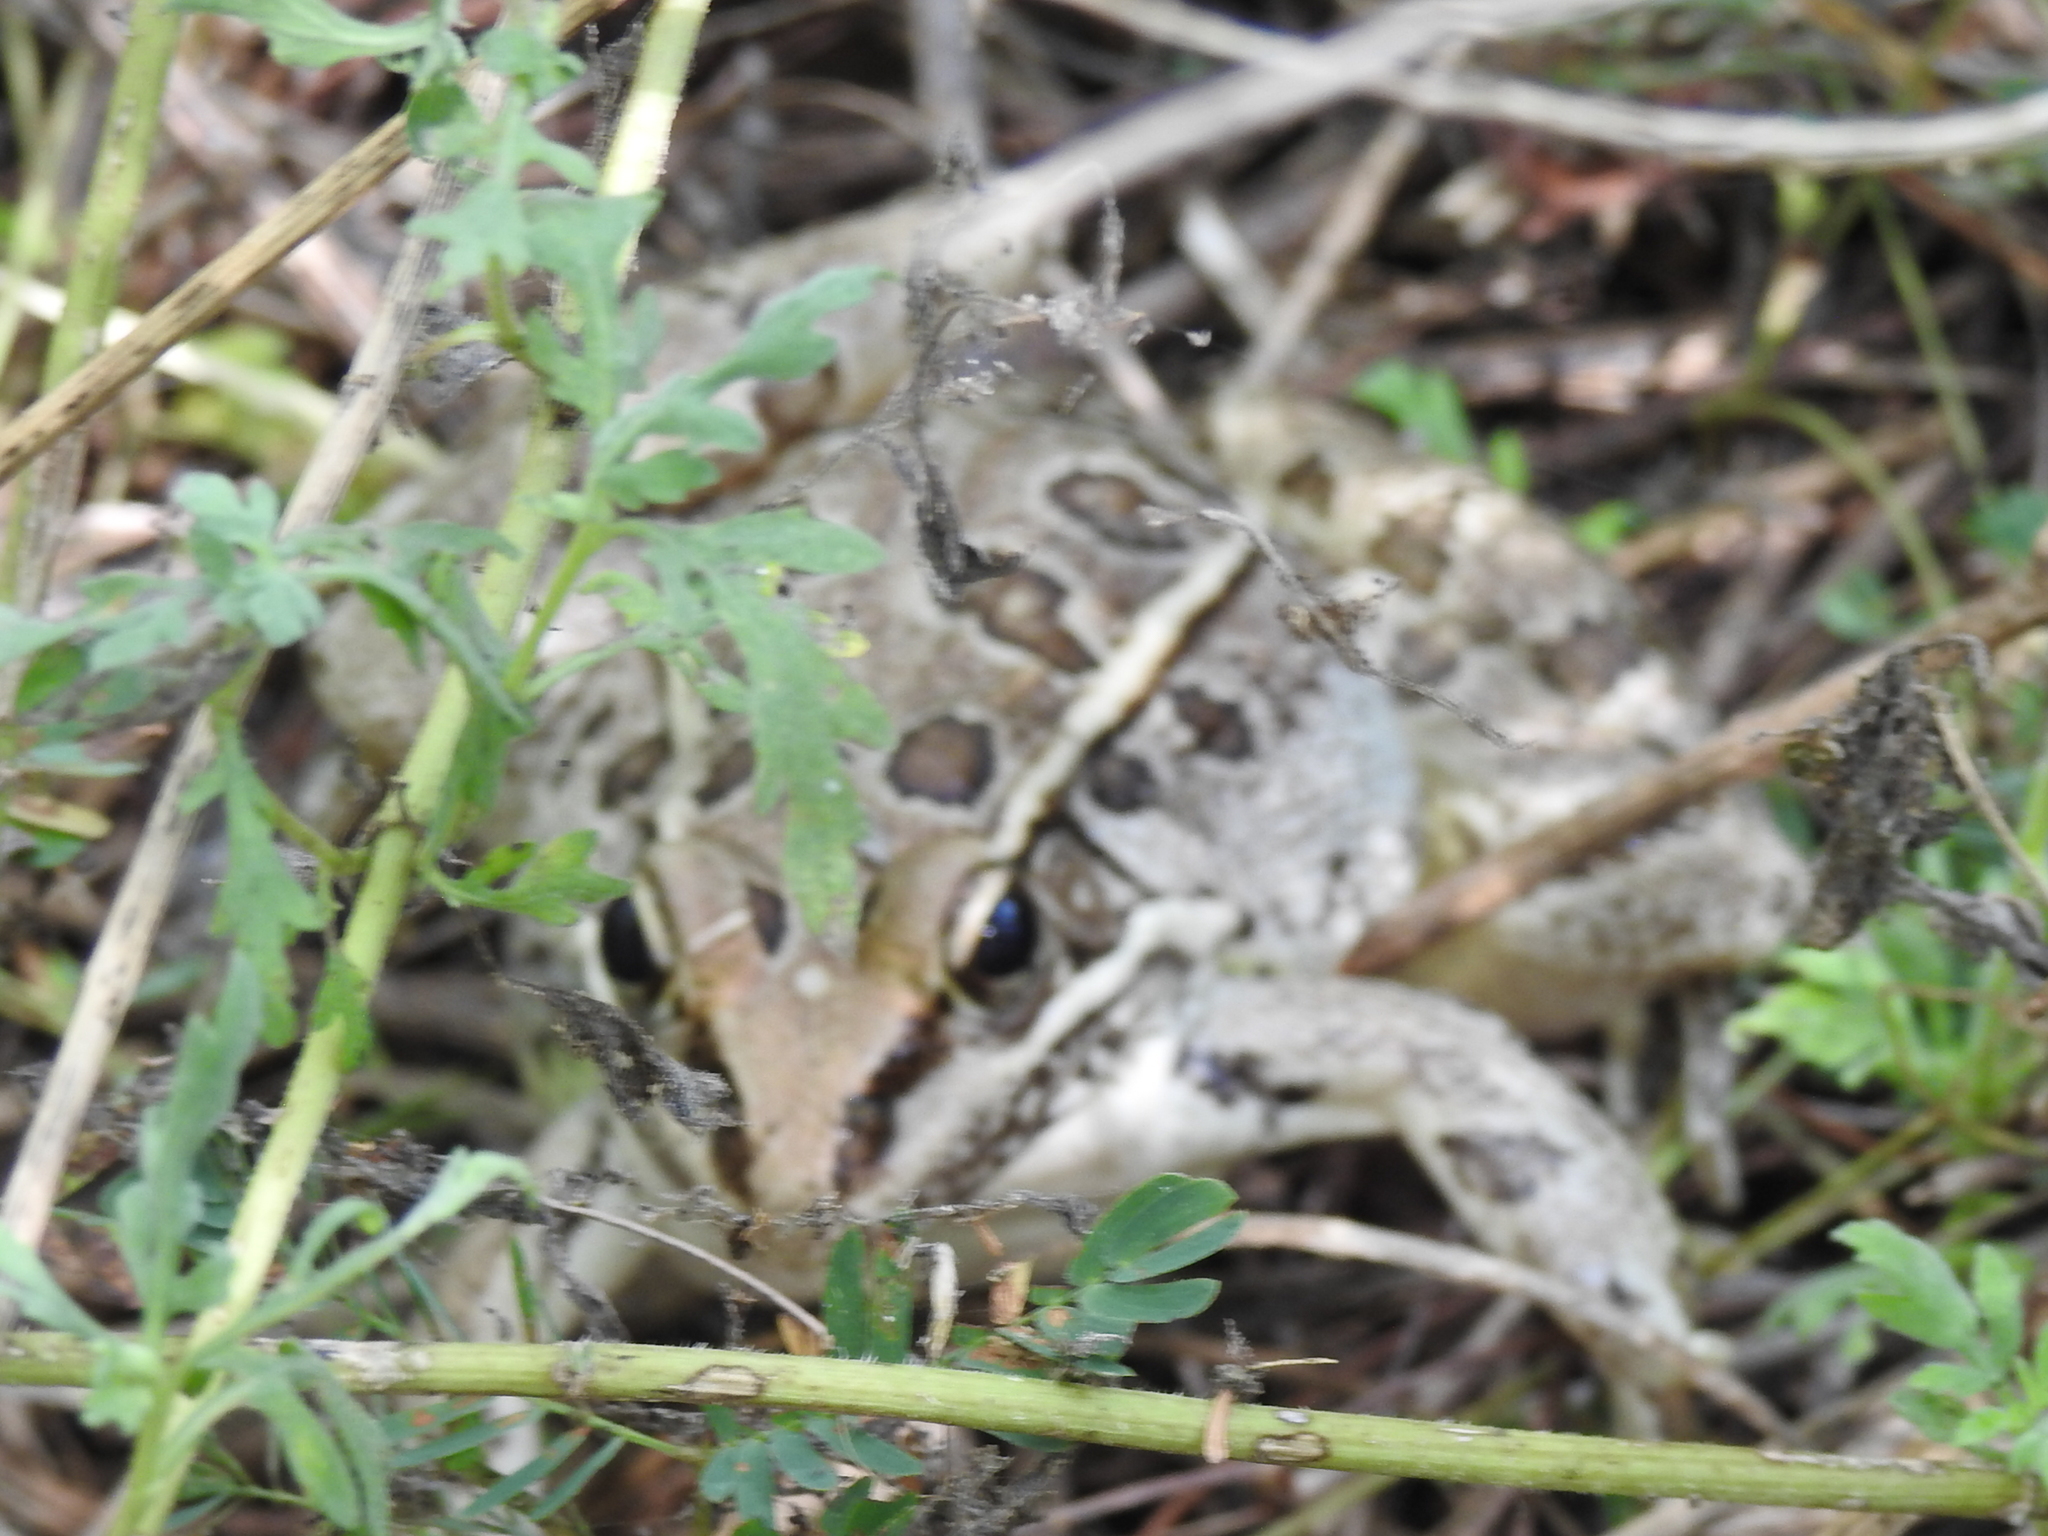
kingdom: Animalia
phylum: Chordata
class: Amphibia
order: Anura
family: Ranidae
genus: Lithobates
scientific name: Lithobates berlandieri
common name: Rio grande leopard frog
